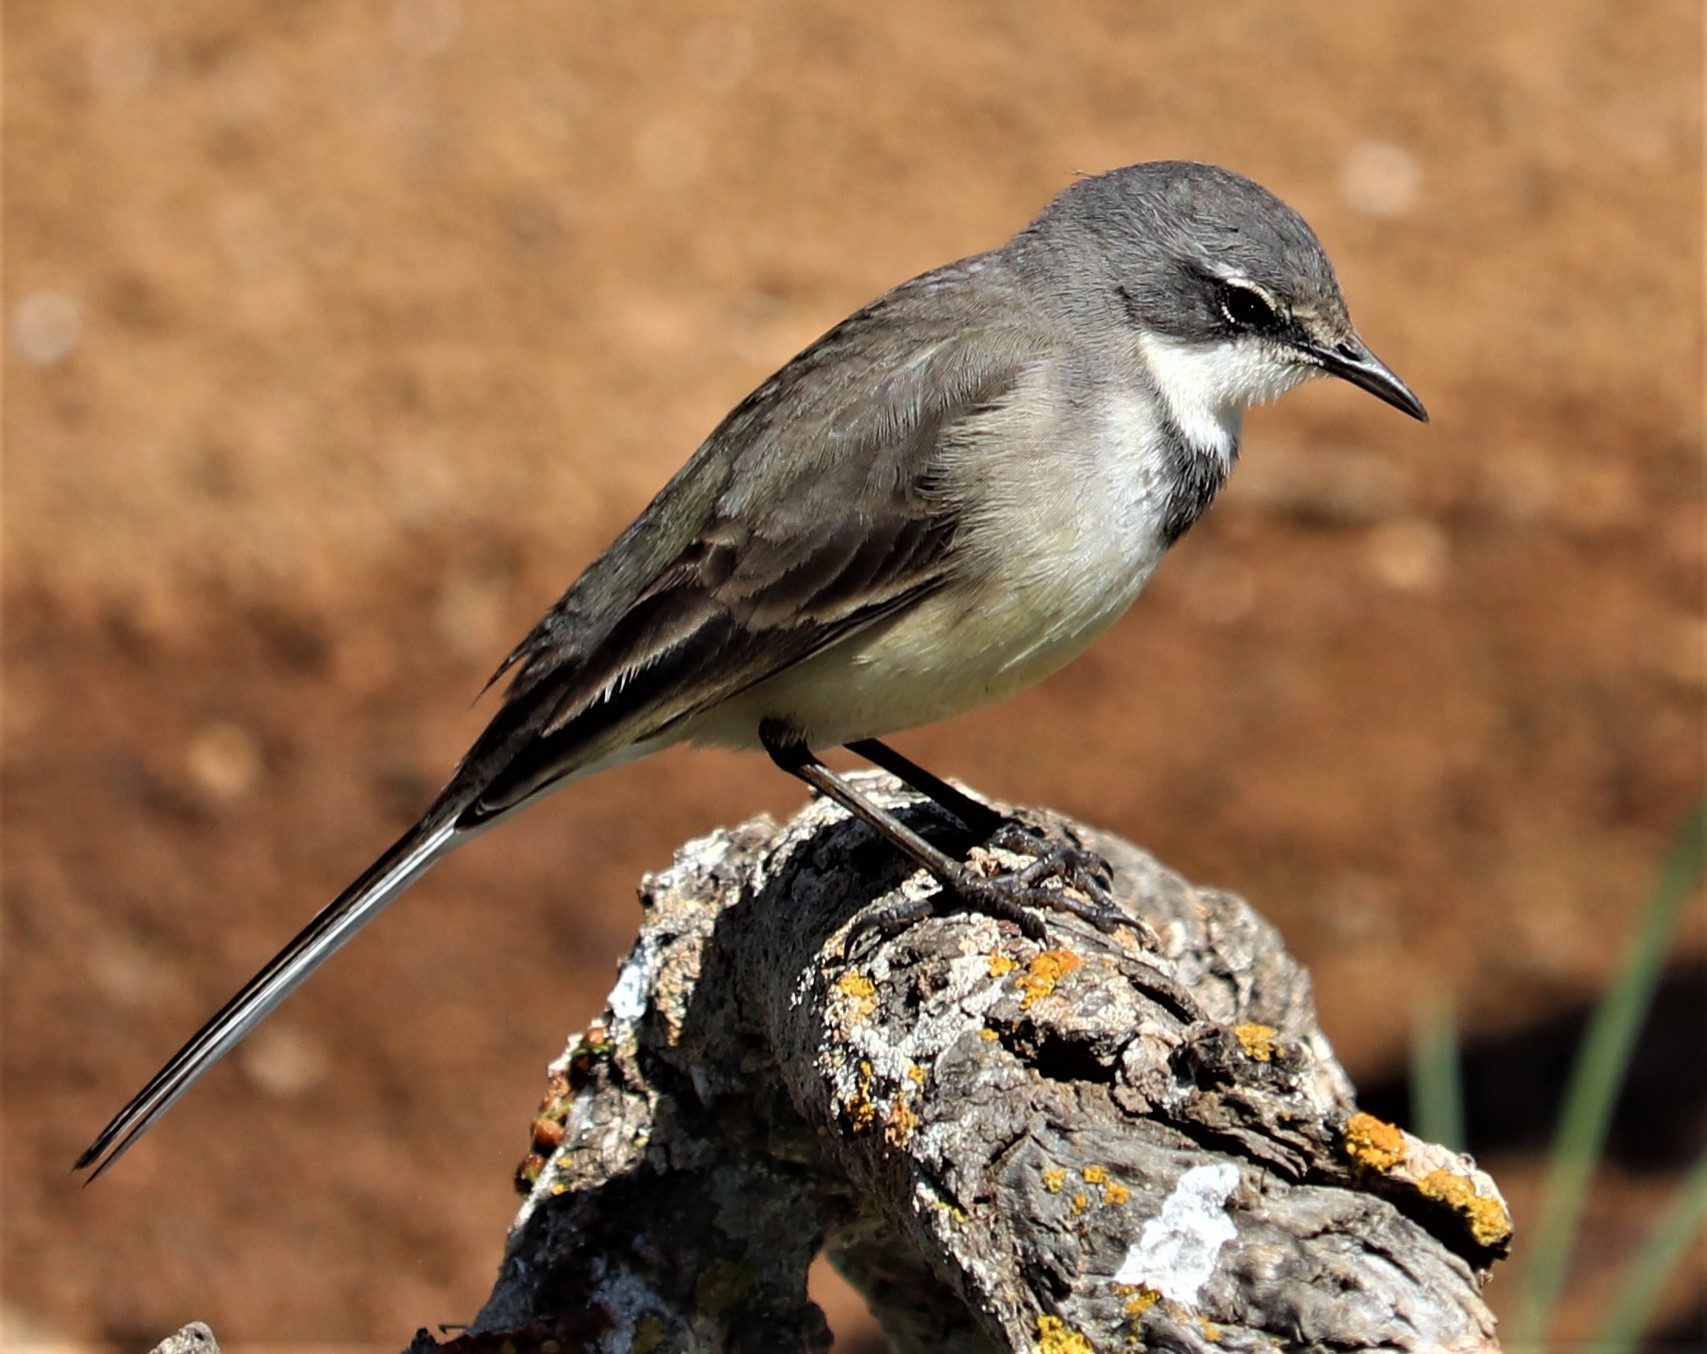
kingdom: Animalia
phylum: Chordata
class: Aves
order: Passeriformes
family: Motacillidae
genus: Motacilla
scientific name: Motacilla capensis
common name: Cape wagtail
